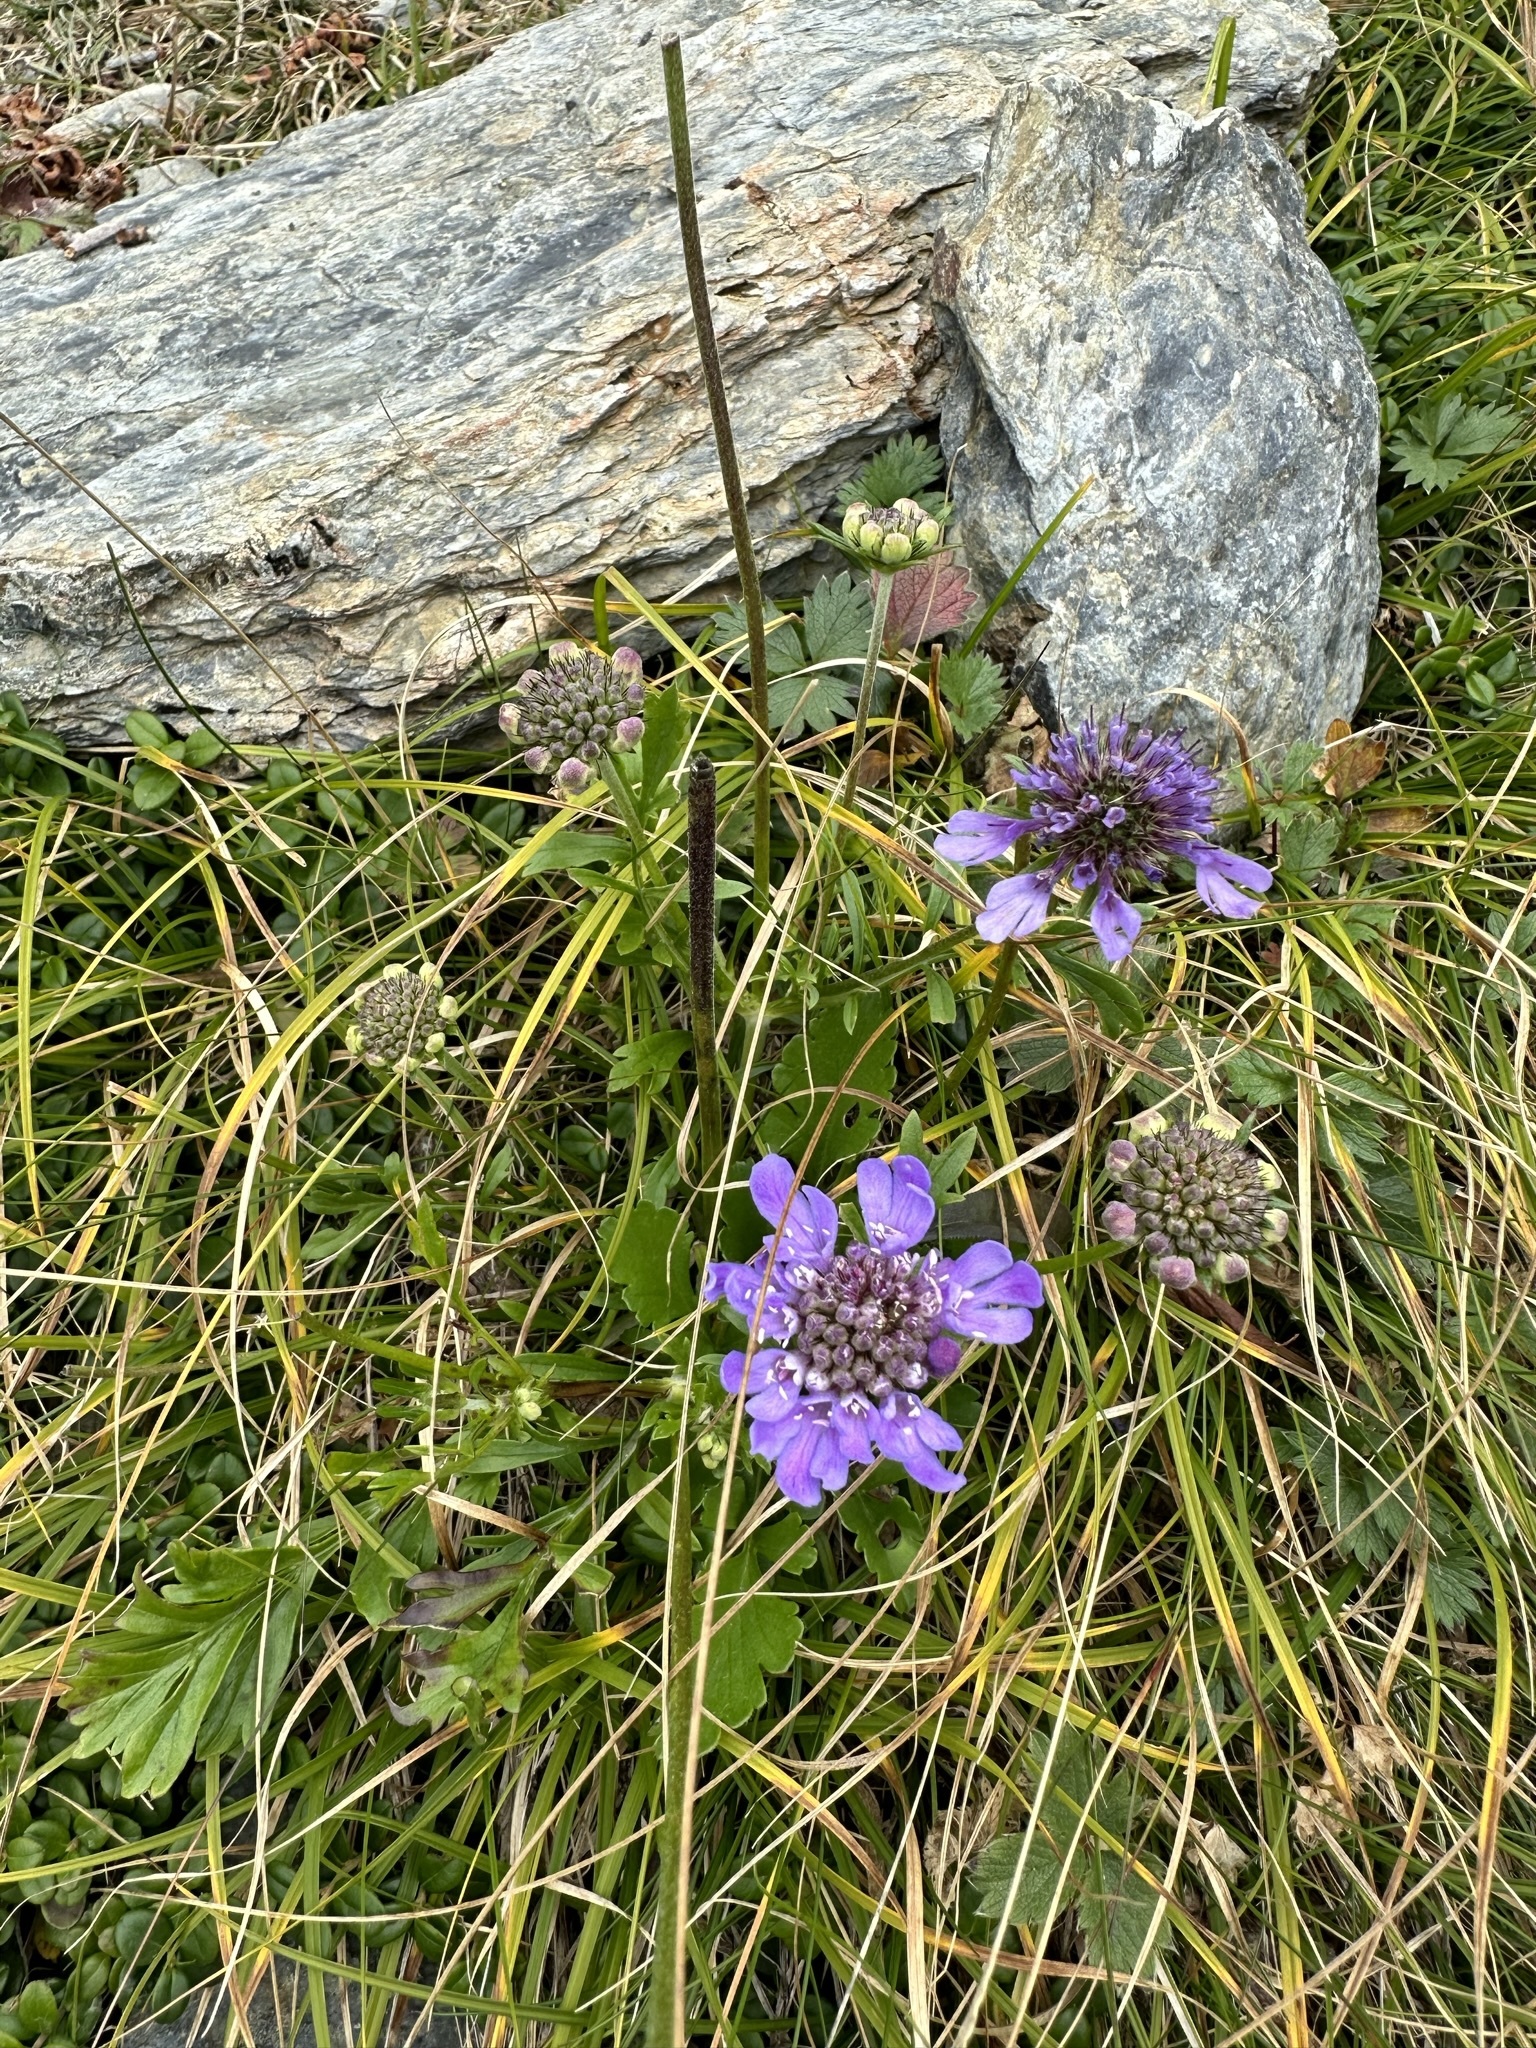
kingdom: Plantae
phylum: Tracheophyta
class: Magnoliopsida
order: Dipsacales
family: Caprifoliaceae
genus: Scabiosa
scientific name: Scabiosa japonica
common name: Pincushion-flower
